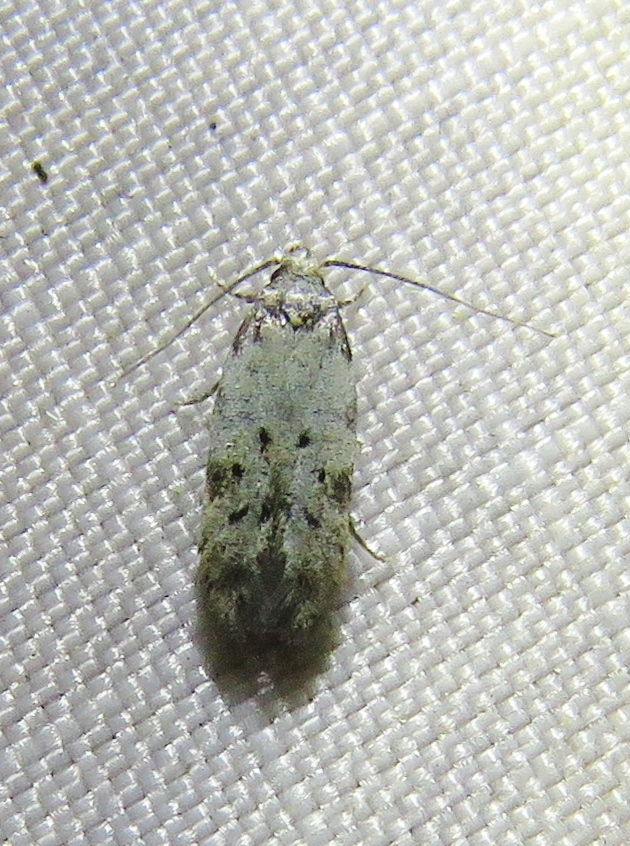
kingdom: Animalia
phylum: Arthropoda
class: Insecta
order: Lepidoptera
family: Autostichidae
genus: Taygete
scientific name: Taygete attributella
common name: Triangle-marked twirler moth
